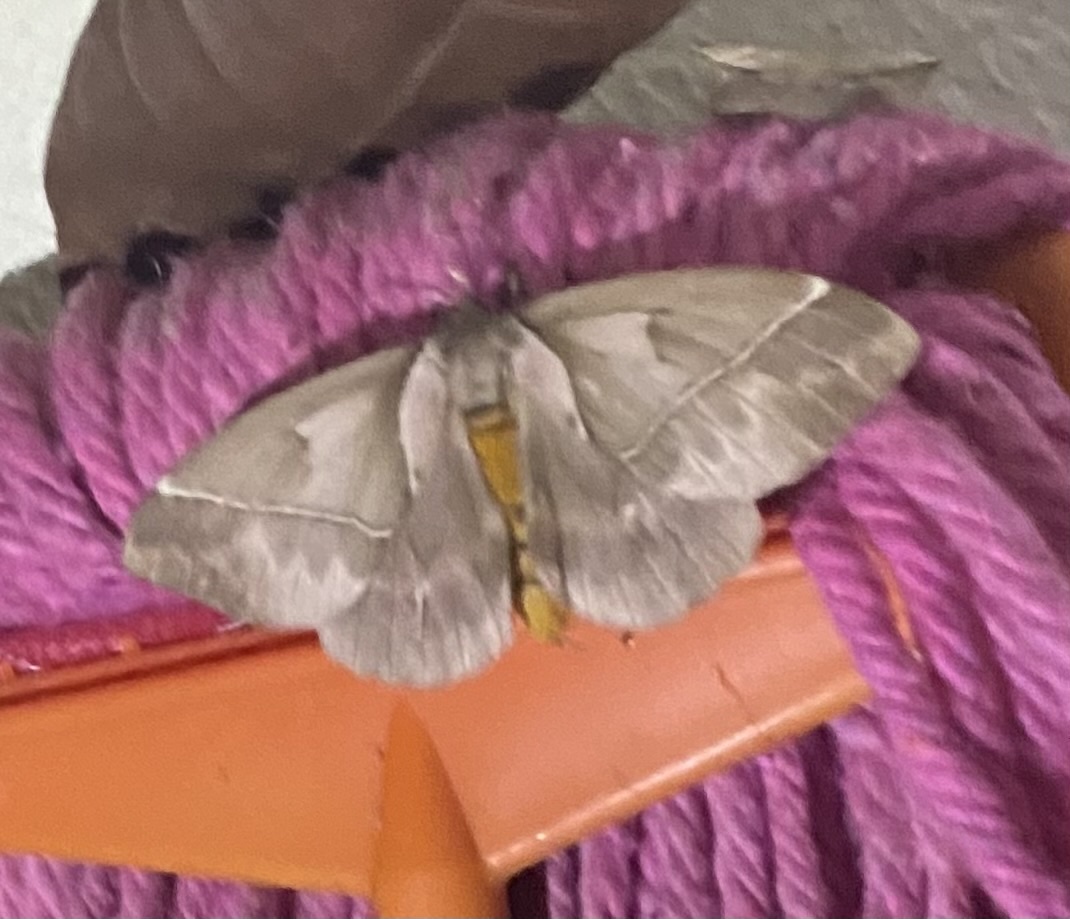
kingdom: Animalia
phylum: Arthropoda
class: Insecta
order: Lepidoptera
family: Saturniidae
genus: Pseudodirphia
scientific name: Pseudodirphia eupanamensis
